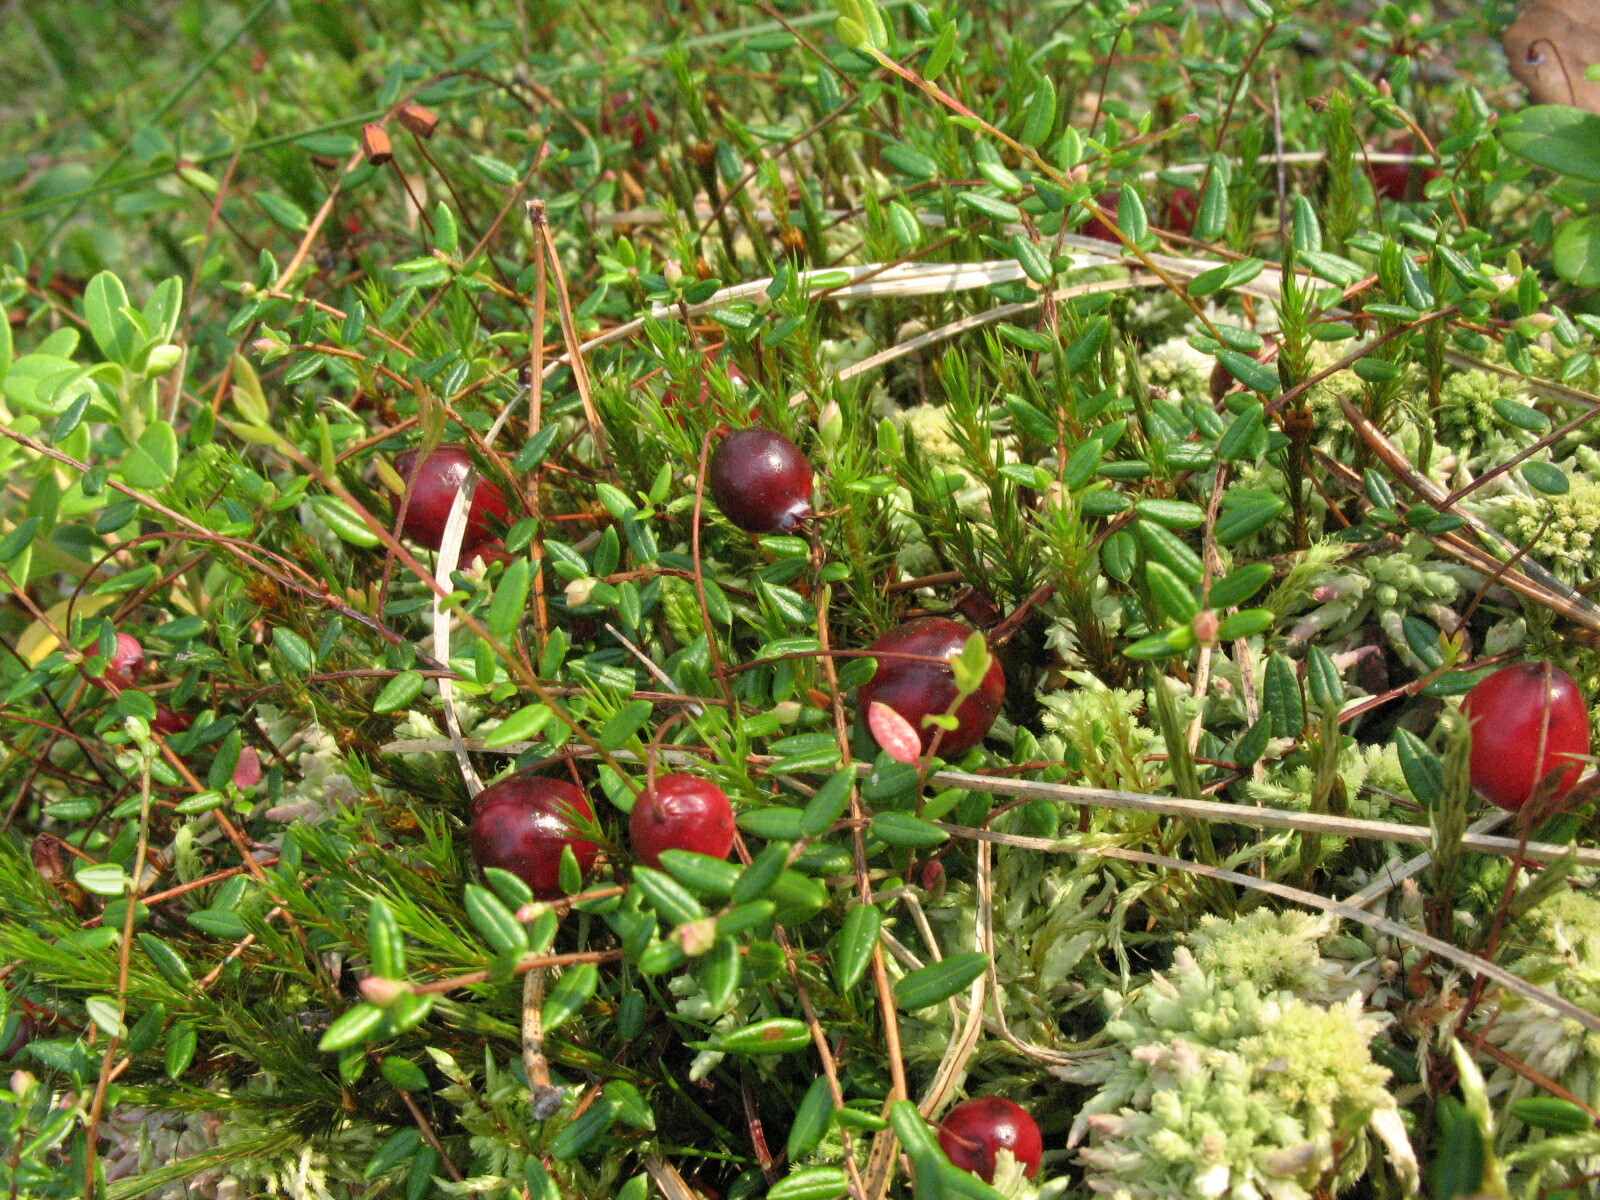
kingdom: Plantae
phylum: Tracheophyta
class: Magnoliopsida
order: Ericales
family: Ericaceae
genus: Vaccinium
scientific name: Vaccinium oxycoccos
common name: Cranberry
